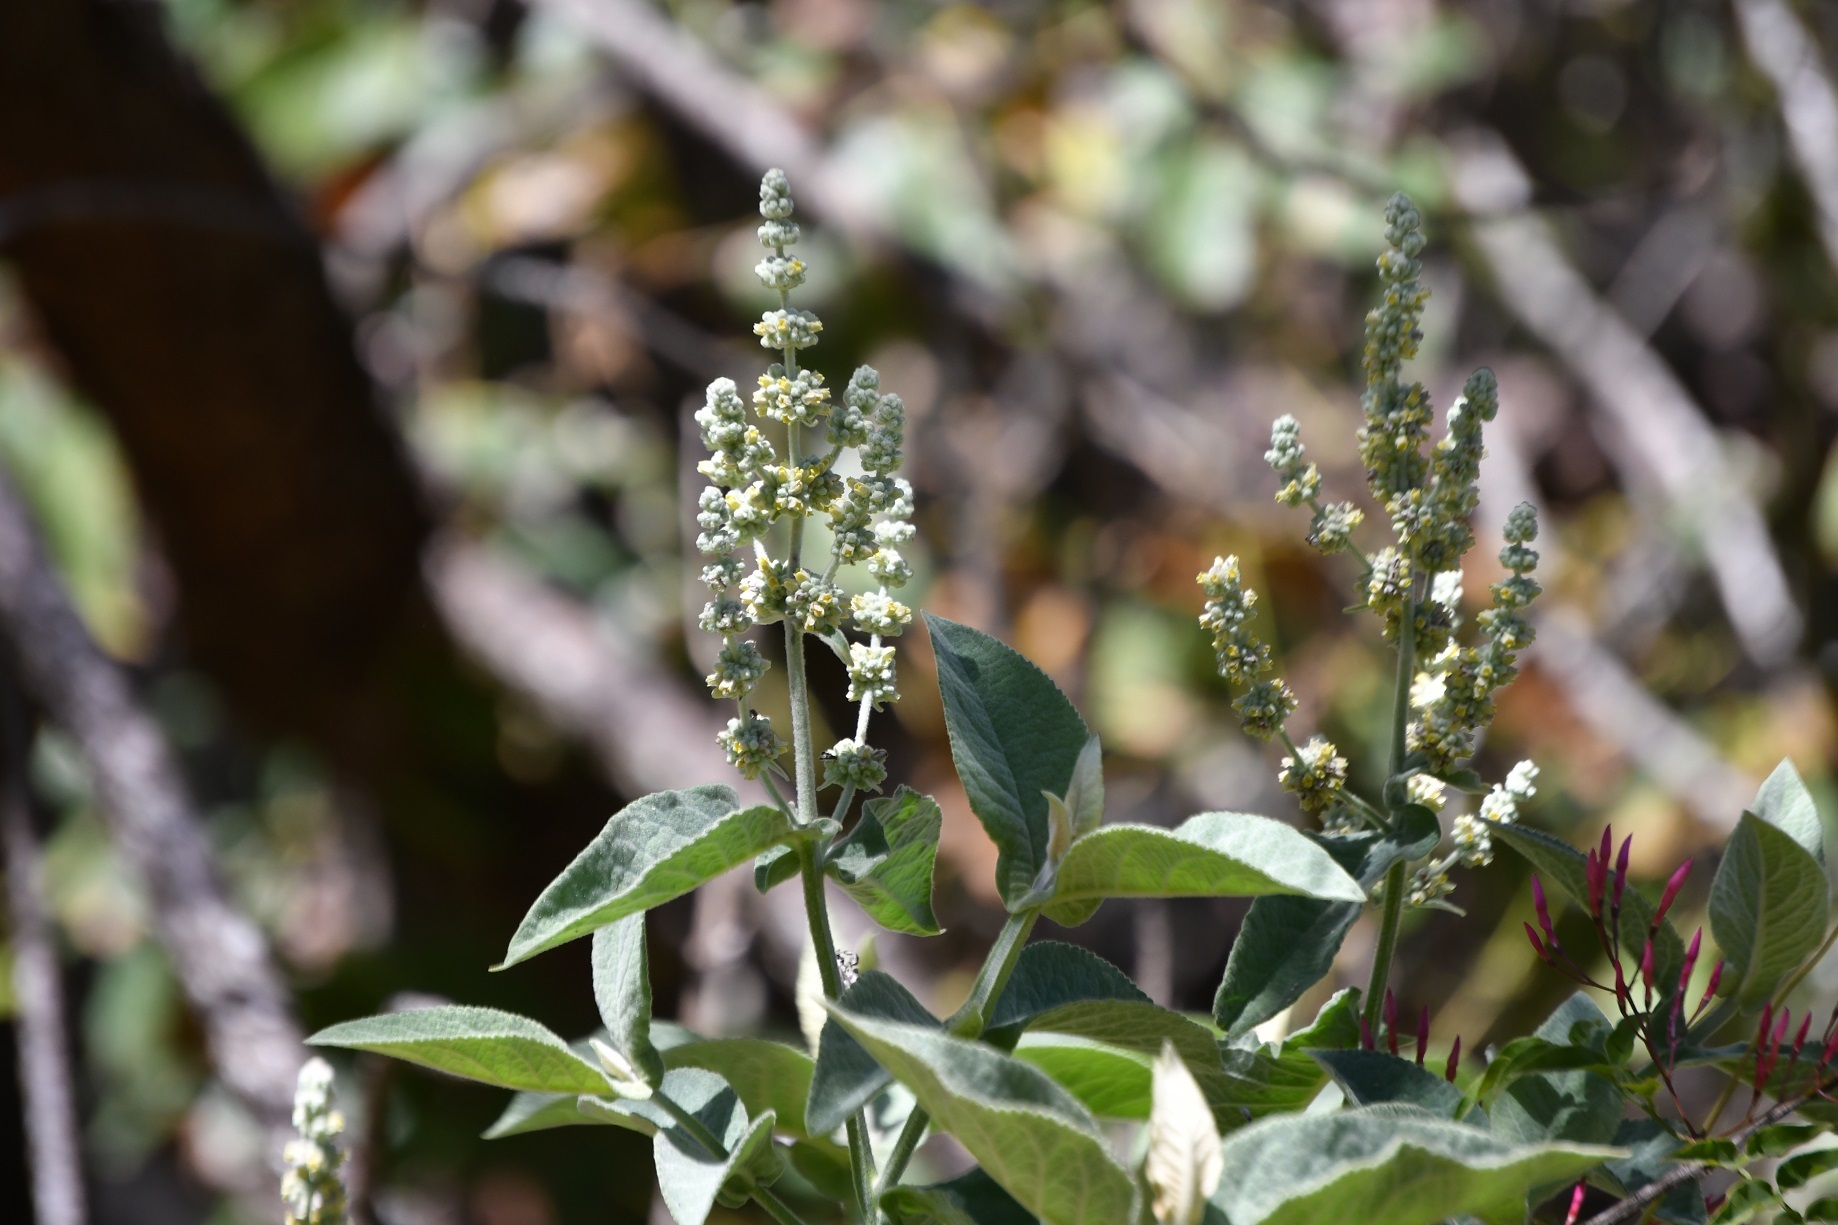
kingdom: Plantae
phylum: Tracheophyta
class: Magnoliopsida
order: Lamiales
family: Scrophulariaceae
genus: Buddleja
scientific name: Buddleja crotonoides
